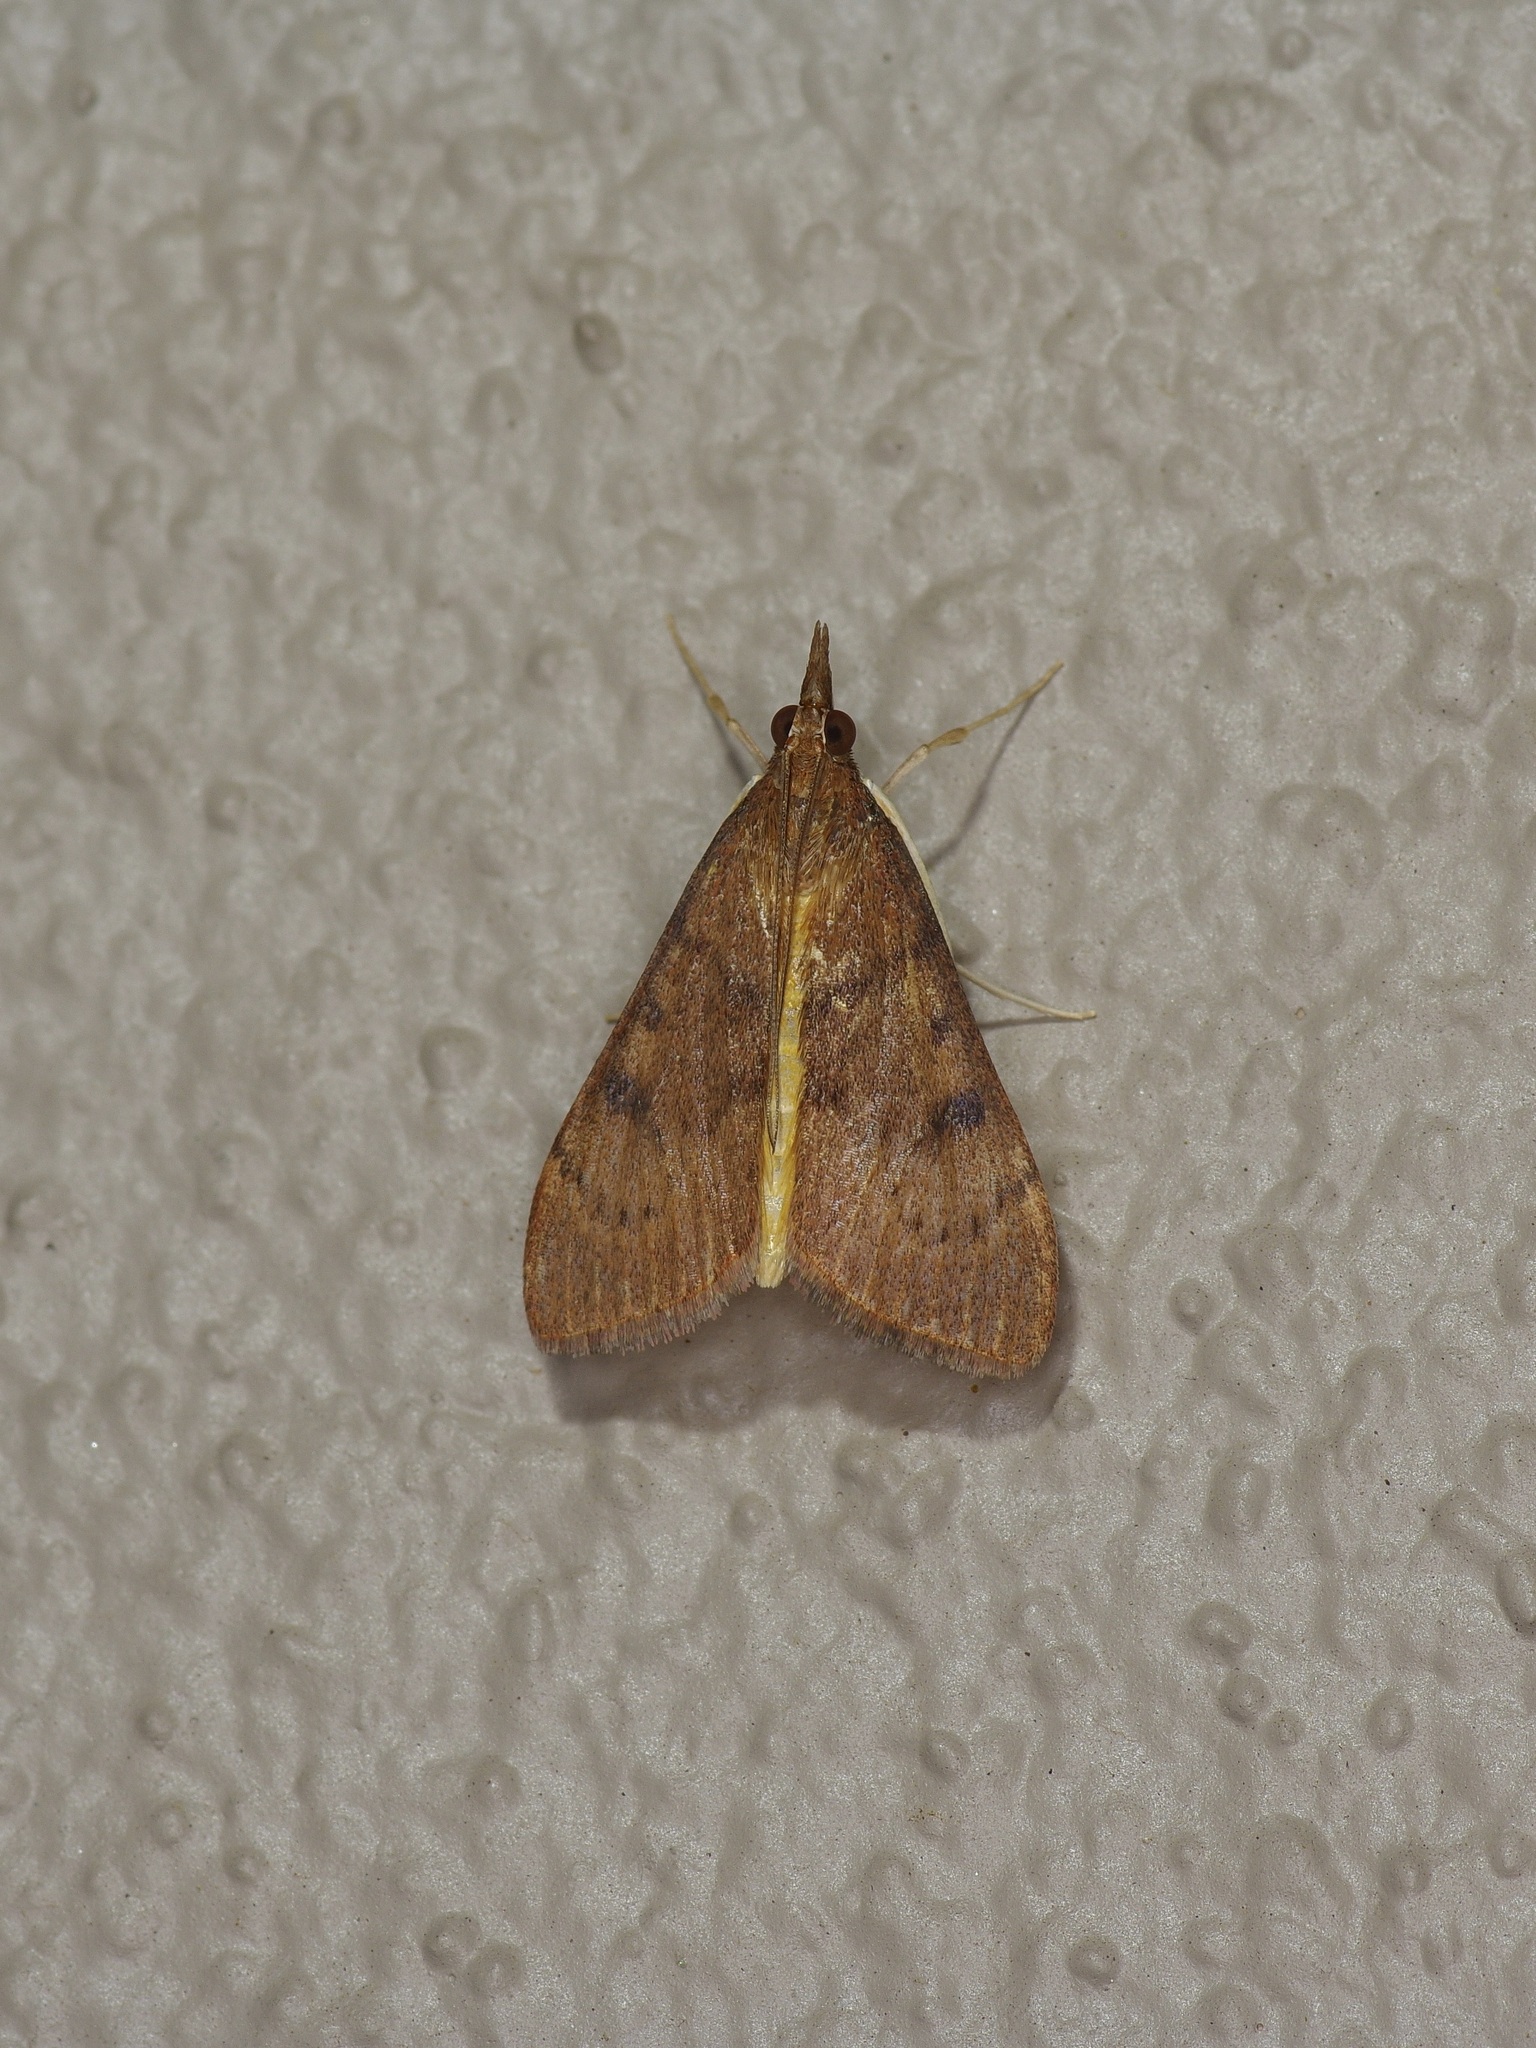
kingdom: Animalia
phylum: Arthropoda
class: Insecta
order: Lepidoptera
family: Crambidae
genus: Uresiphita
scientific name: Uresiphita reversalis
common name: Genista broom moth
